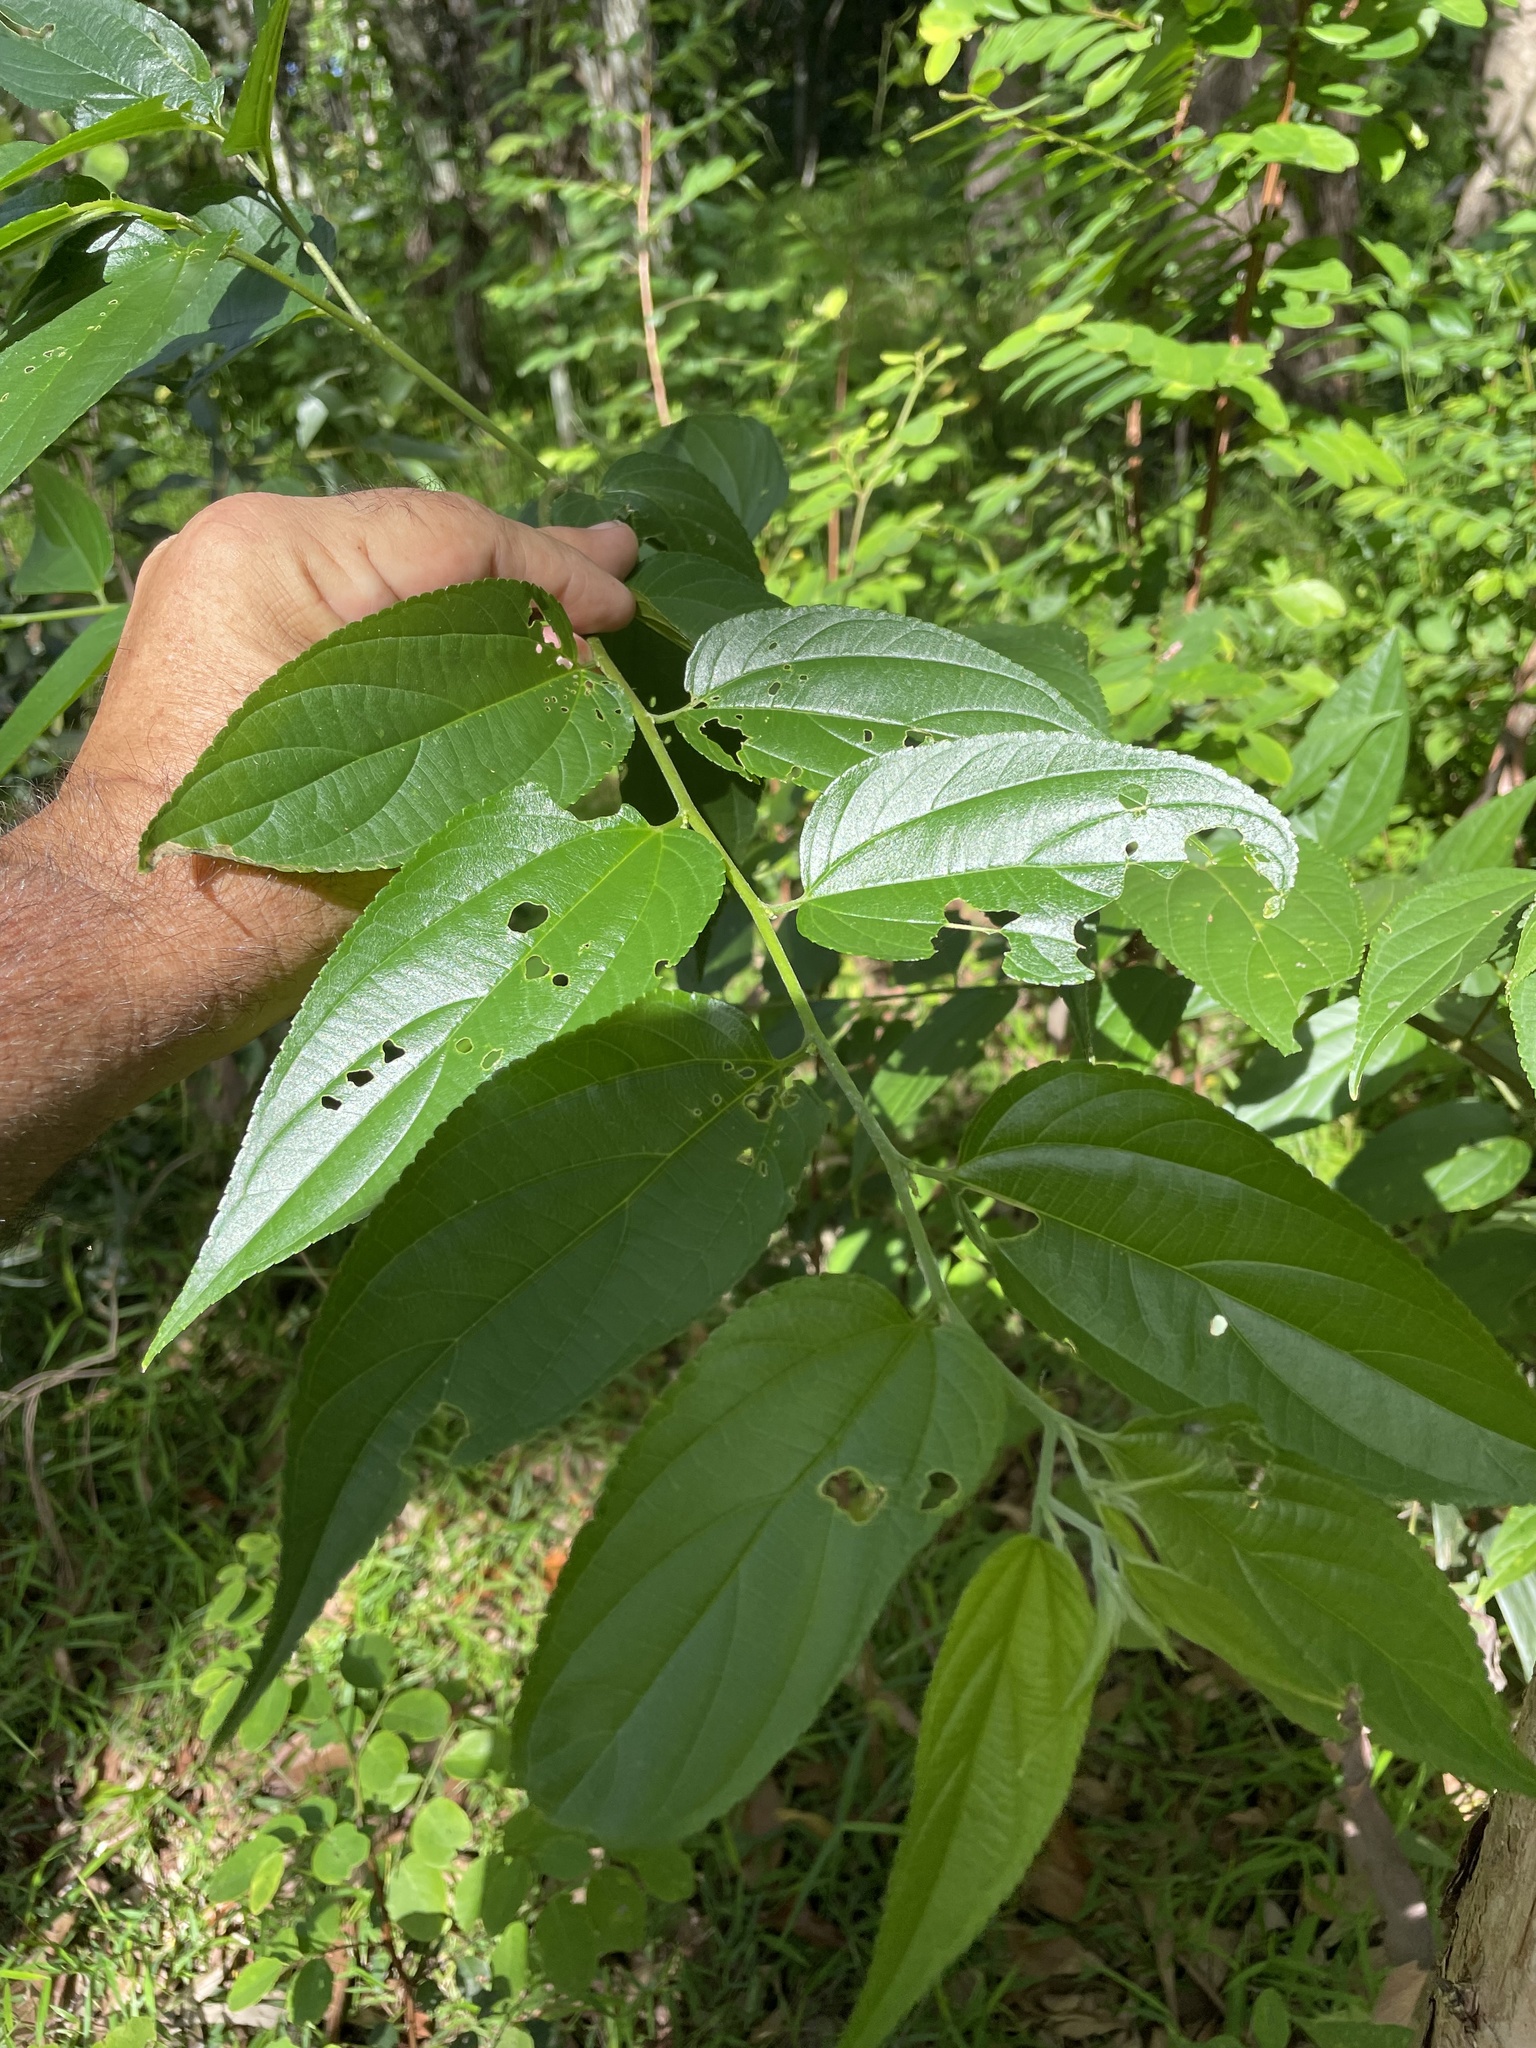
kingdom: Plantae
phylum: Tracheophyta
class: Magnoliopsida
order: Rosales
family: Cannabaceae
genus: Trema
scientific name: Trema tomentosum
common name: Peach-leaf-poisonbush
